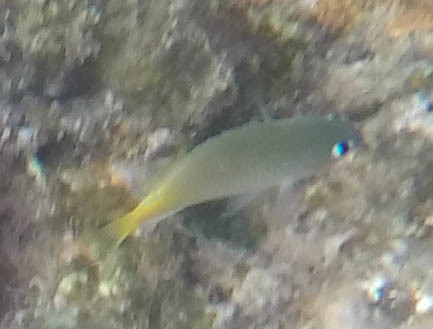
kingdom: Animalia
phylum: Chordata
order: Perciformes
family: Pomacentridae
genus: Plectroglyphidodon
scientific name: Plectroglyphidodon imparipennis
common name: Brighteye damsel
